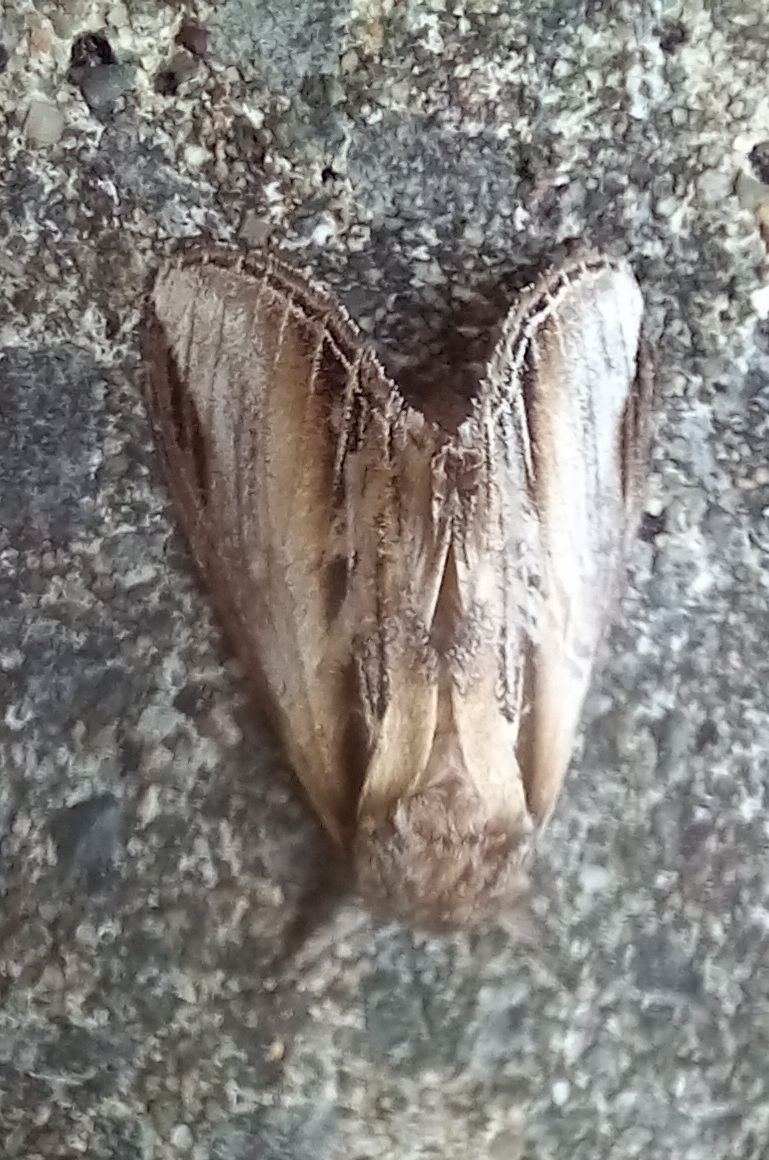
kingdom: Animalia
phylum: Arthropoda
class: Insecta
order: Lepidoptera
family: Notodontidae
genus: Pheosia
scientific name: Pheosia tremula
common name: Swallow prominent
